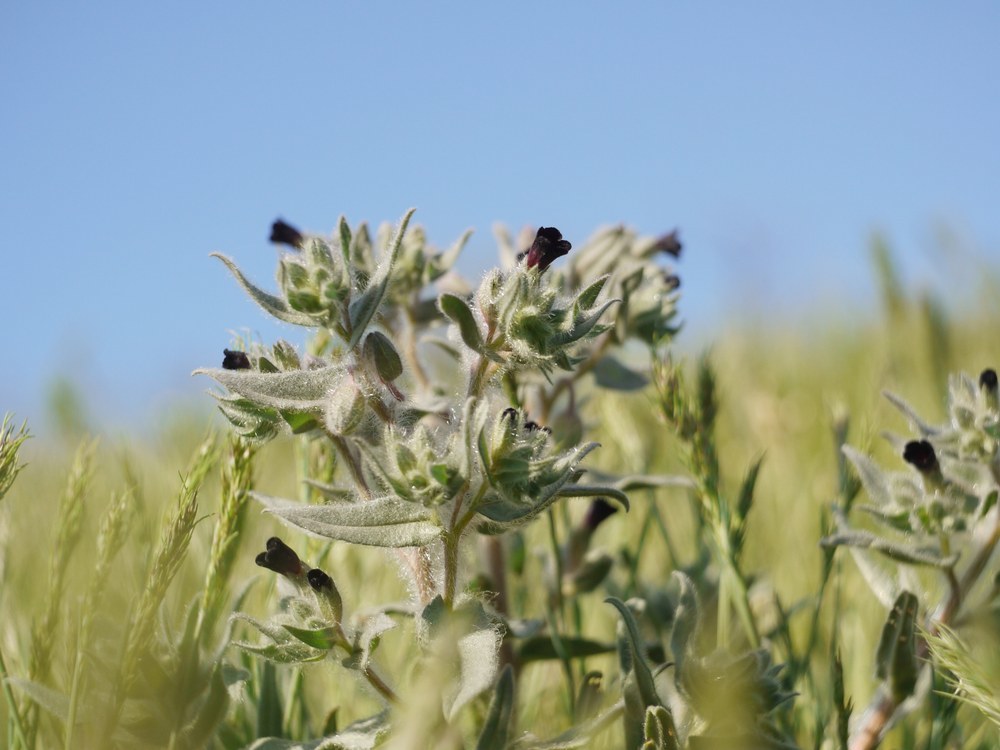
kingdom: Plantae
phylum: Tracheophyta
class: Magnoliopsida
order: Boraginales
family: Boraginaceae
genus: Nonea
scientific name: Nonea pulla
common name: Brown nonea
